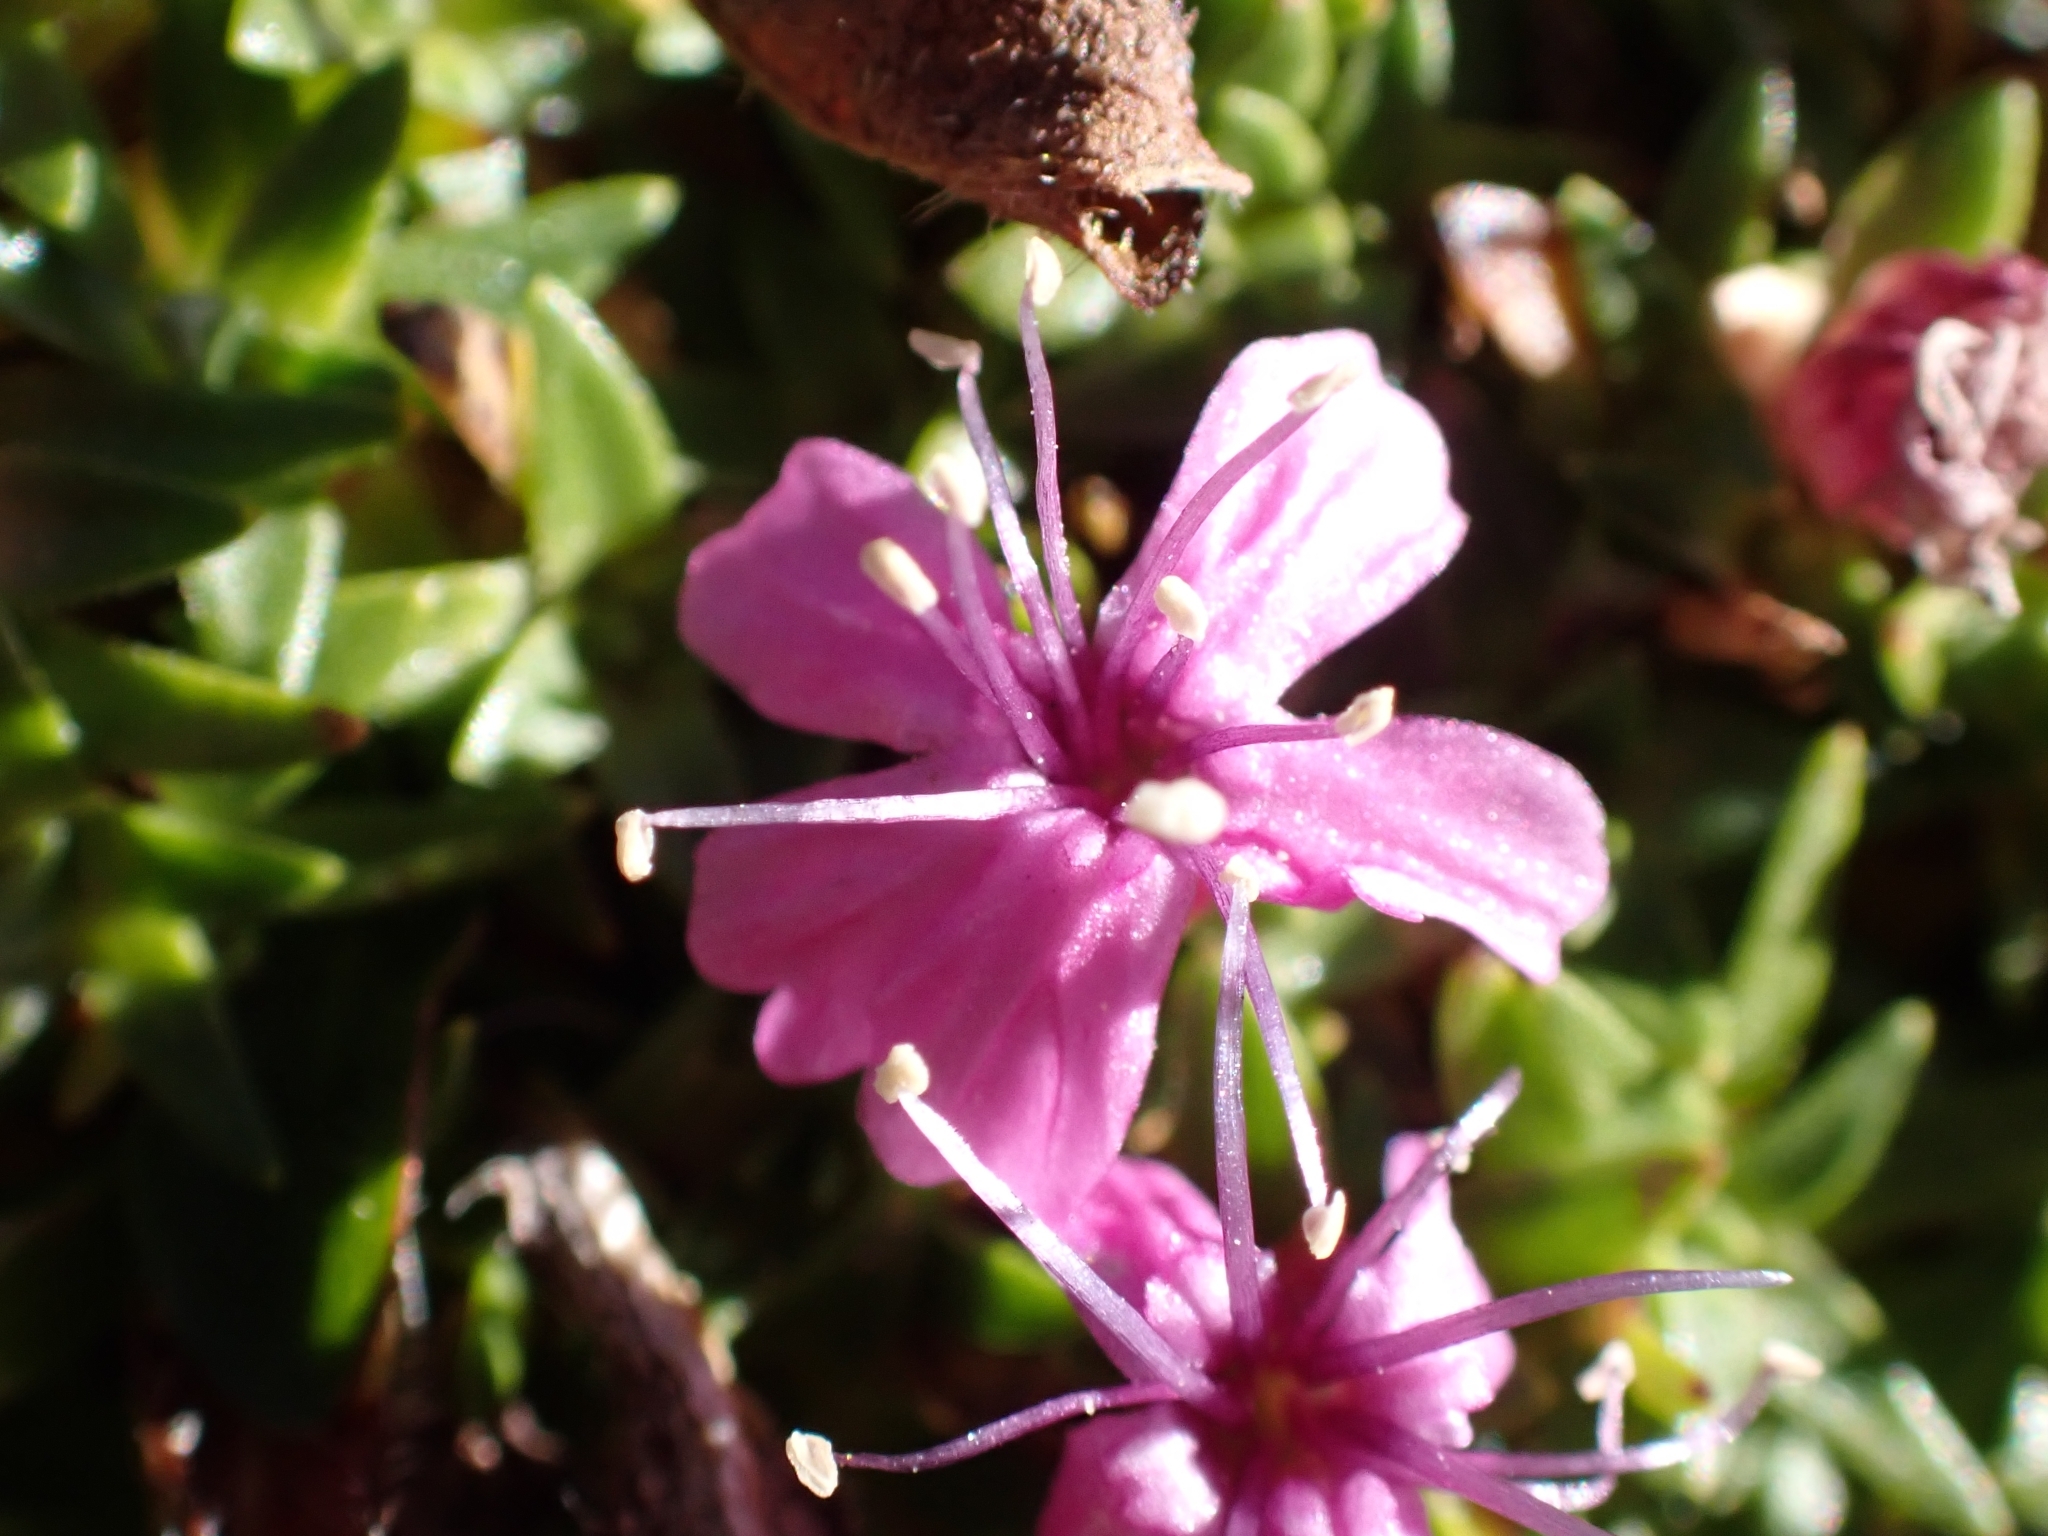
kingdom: Plantae
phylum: Tracheophyta
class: Magnoliopsida
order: Caryophyllales
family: Caryophyllaceae
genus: Silene
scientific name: Silene acaulis
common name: Moss campion
